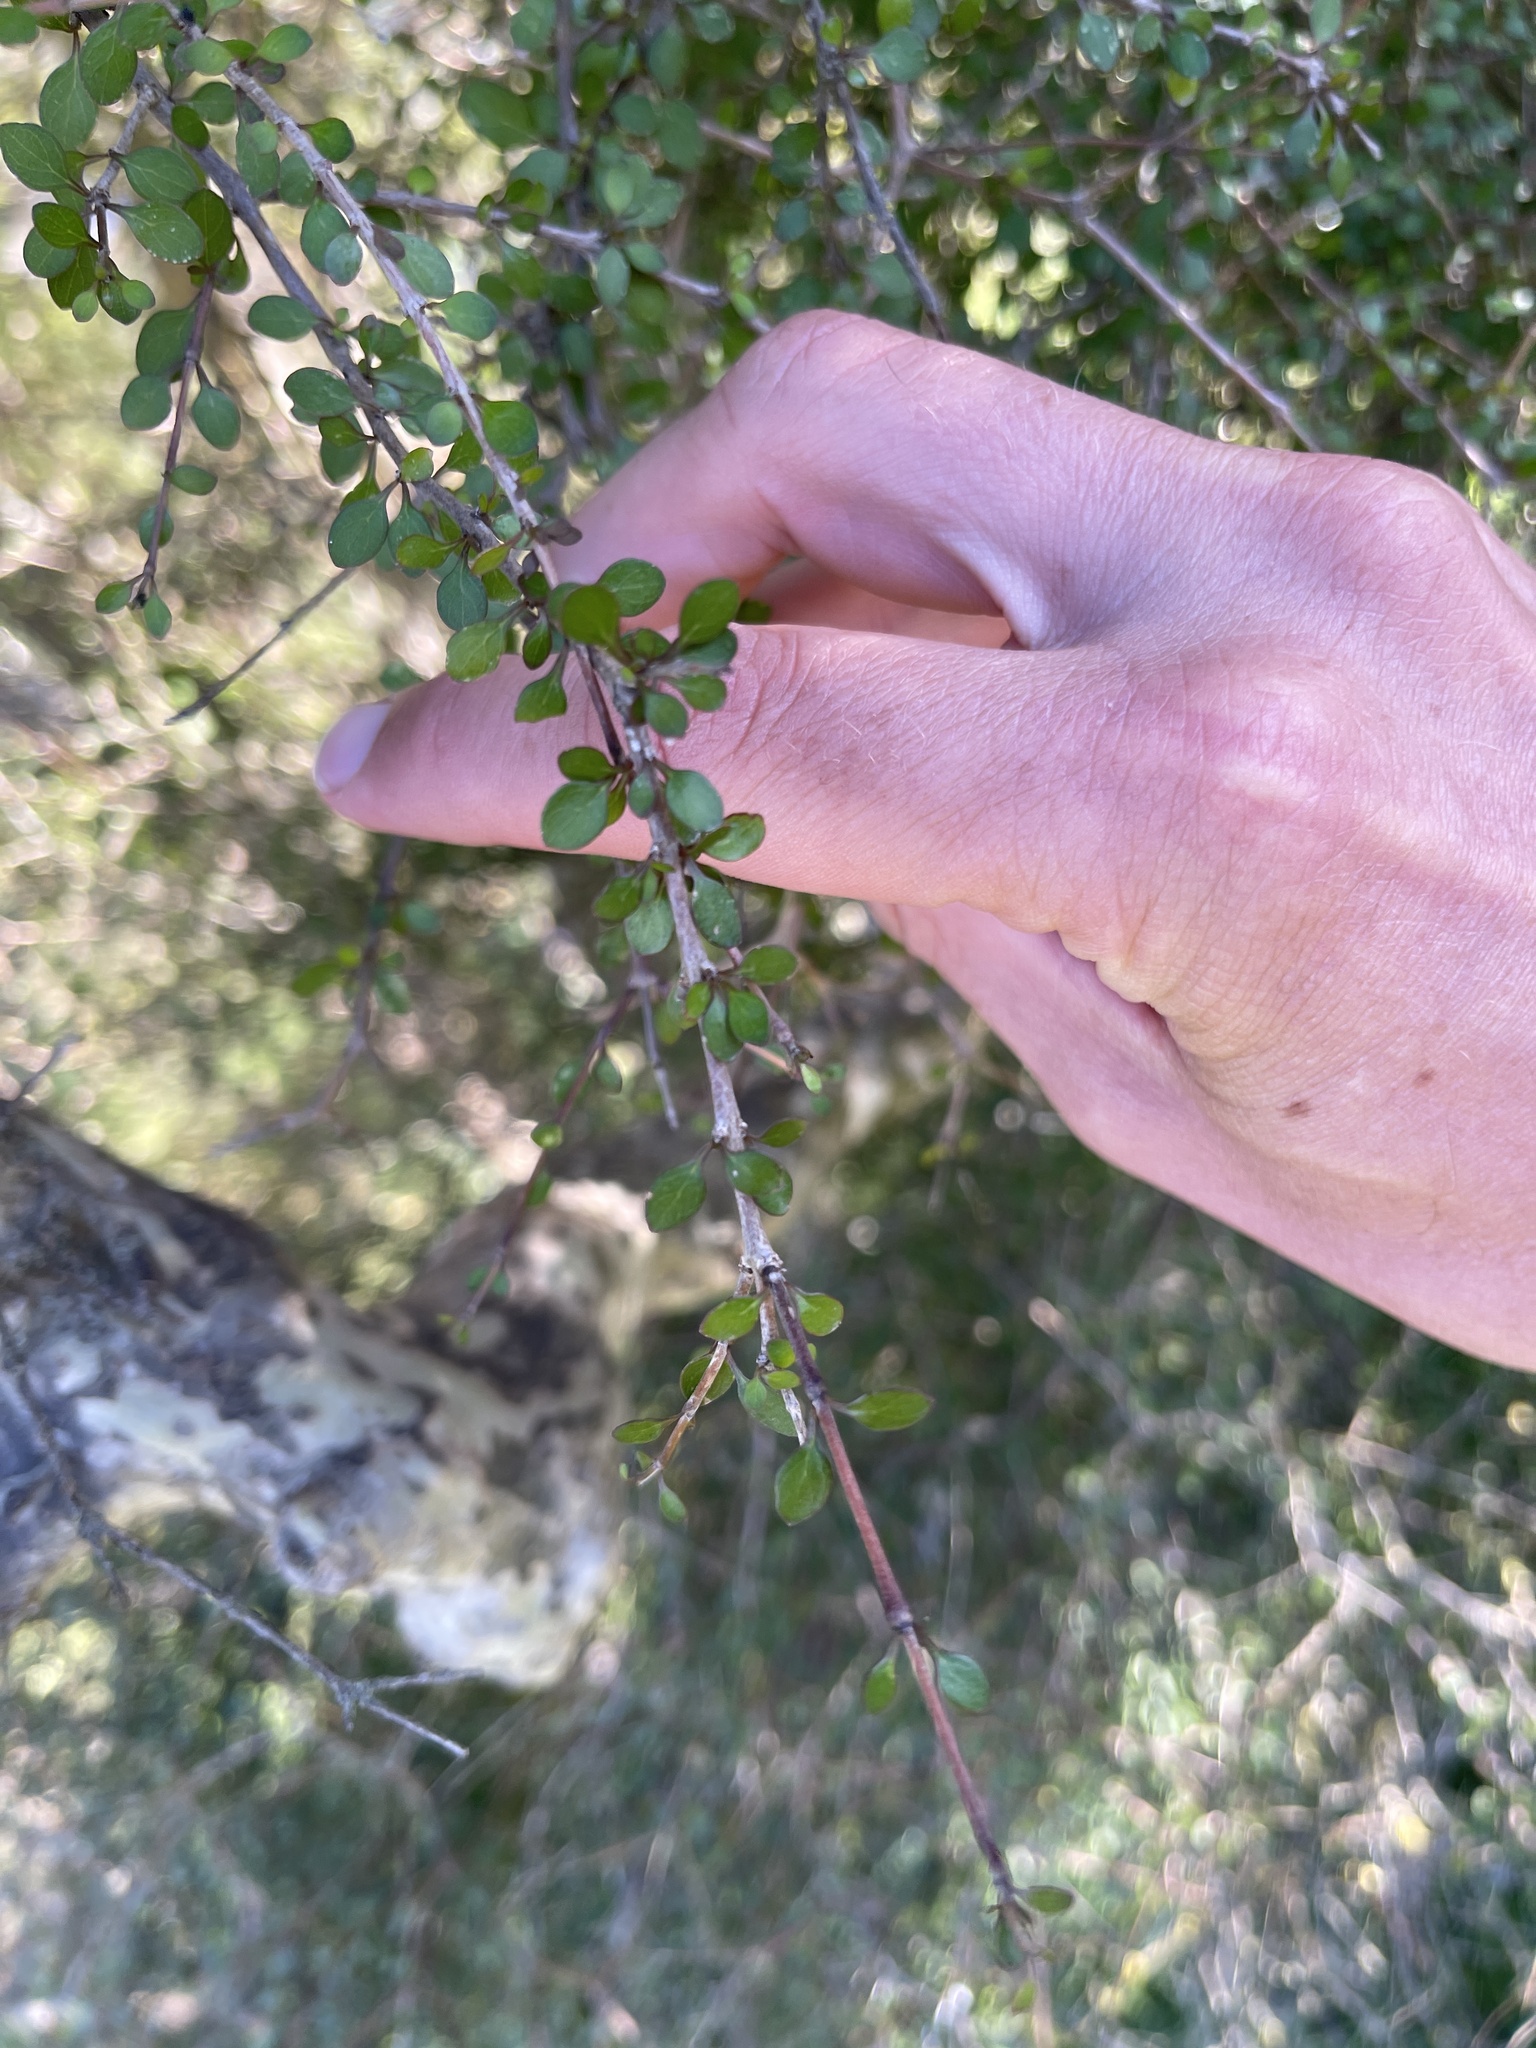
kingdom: Plantae
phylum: Tracheophyta
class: Magnoliopsida
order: Gentianales
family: Rubiaceae
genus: Coprosma
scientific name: Coprosma virescens
